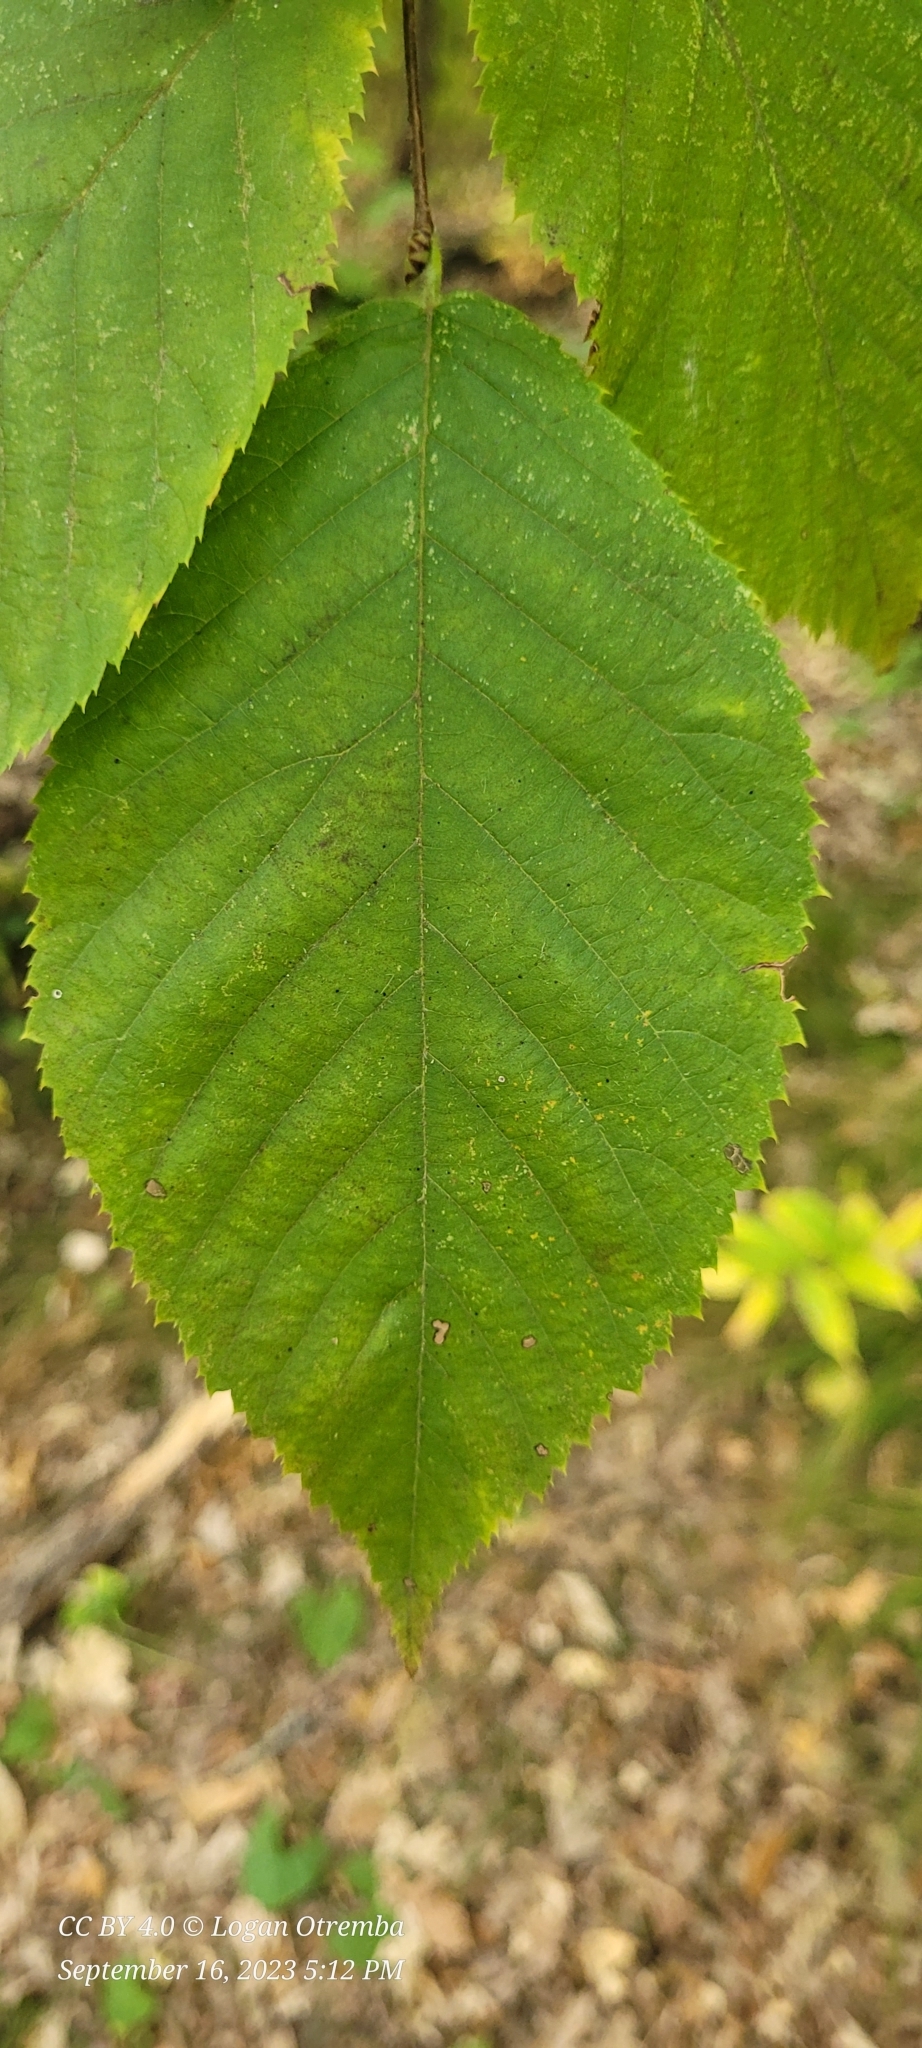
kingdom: Plantae
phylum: Tracheophyta
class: Magnoliopsida
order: Fagales
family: Betulaceae
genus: Ostrya
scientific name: Ostrya virginiana
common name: Ironwood
